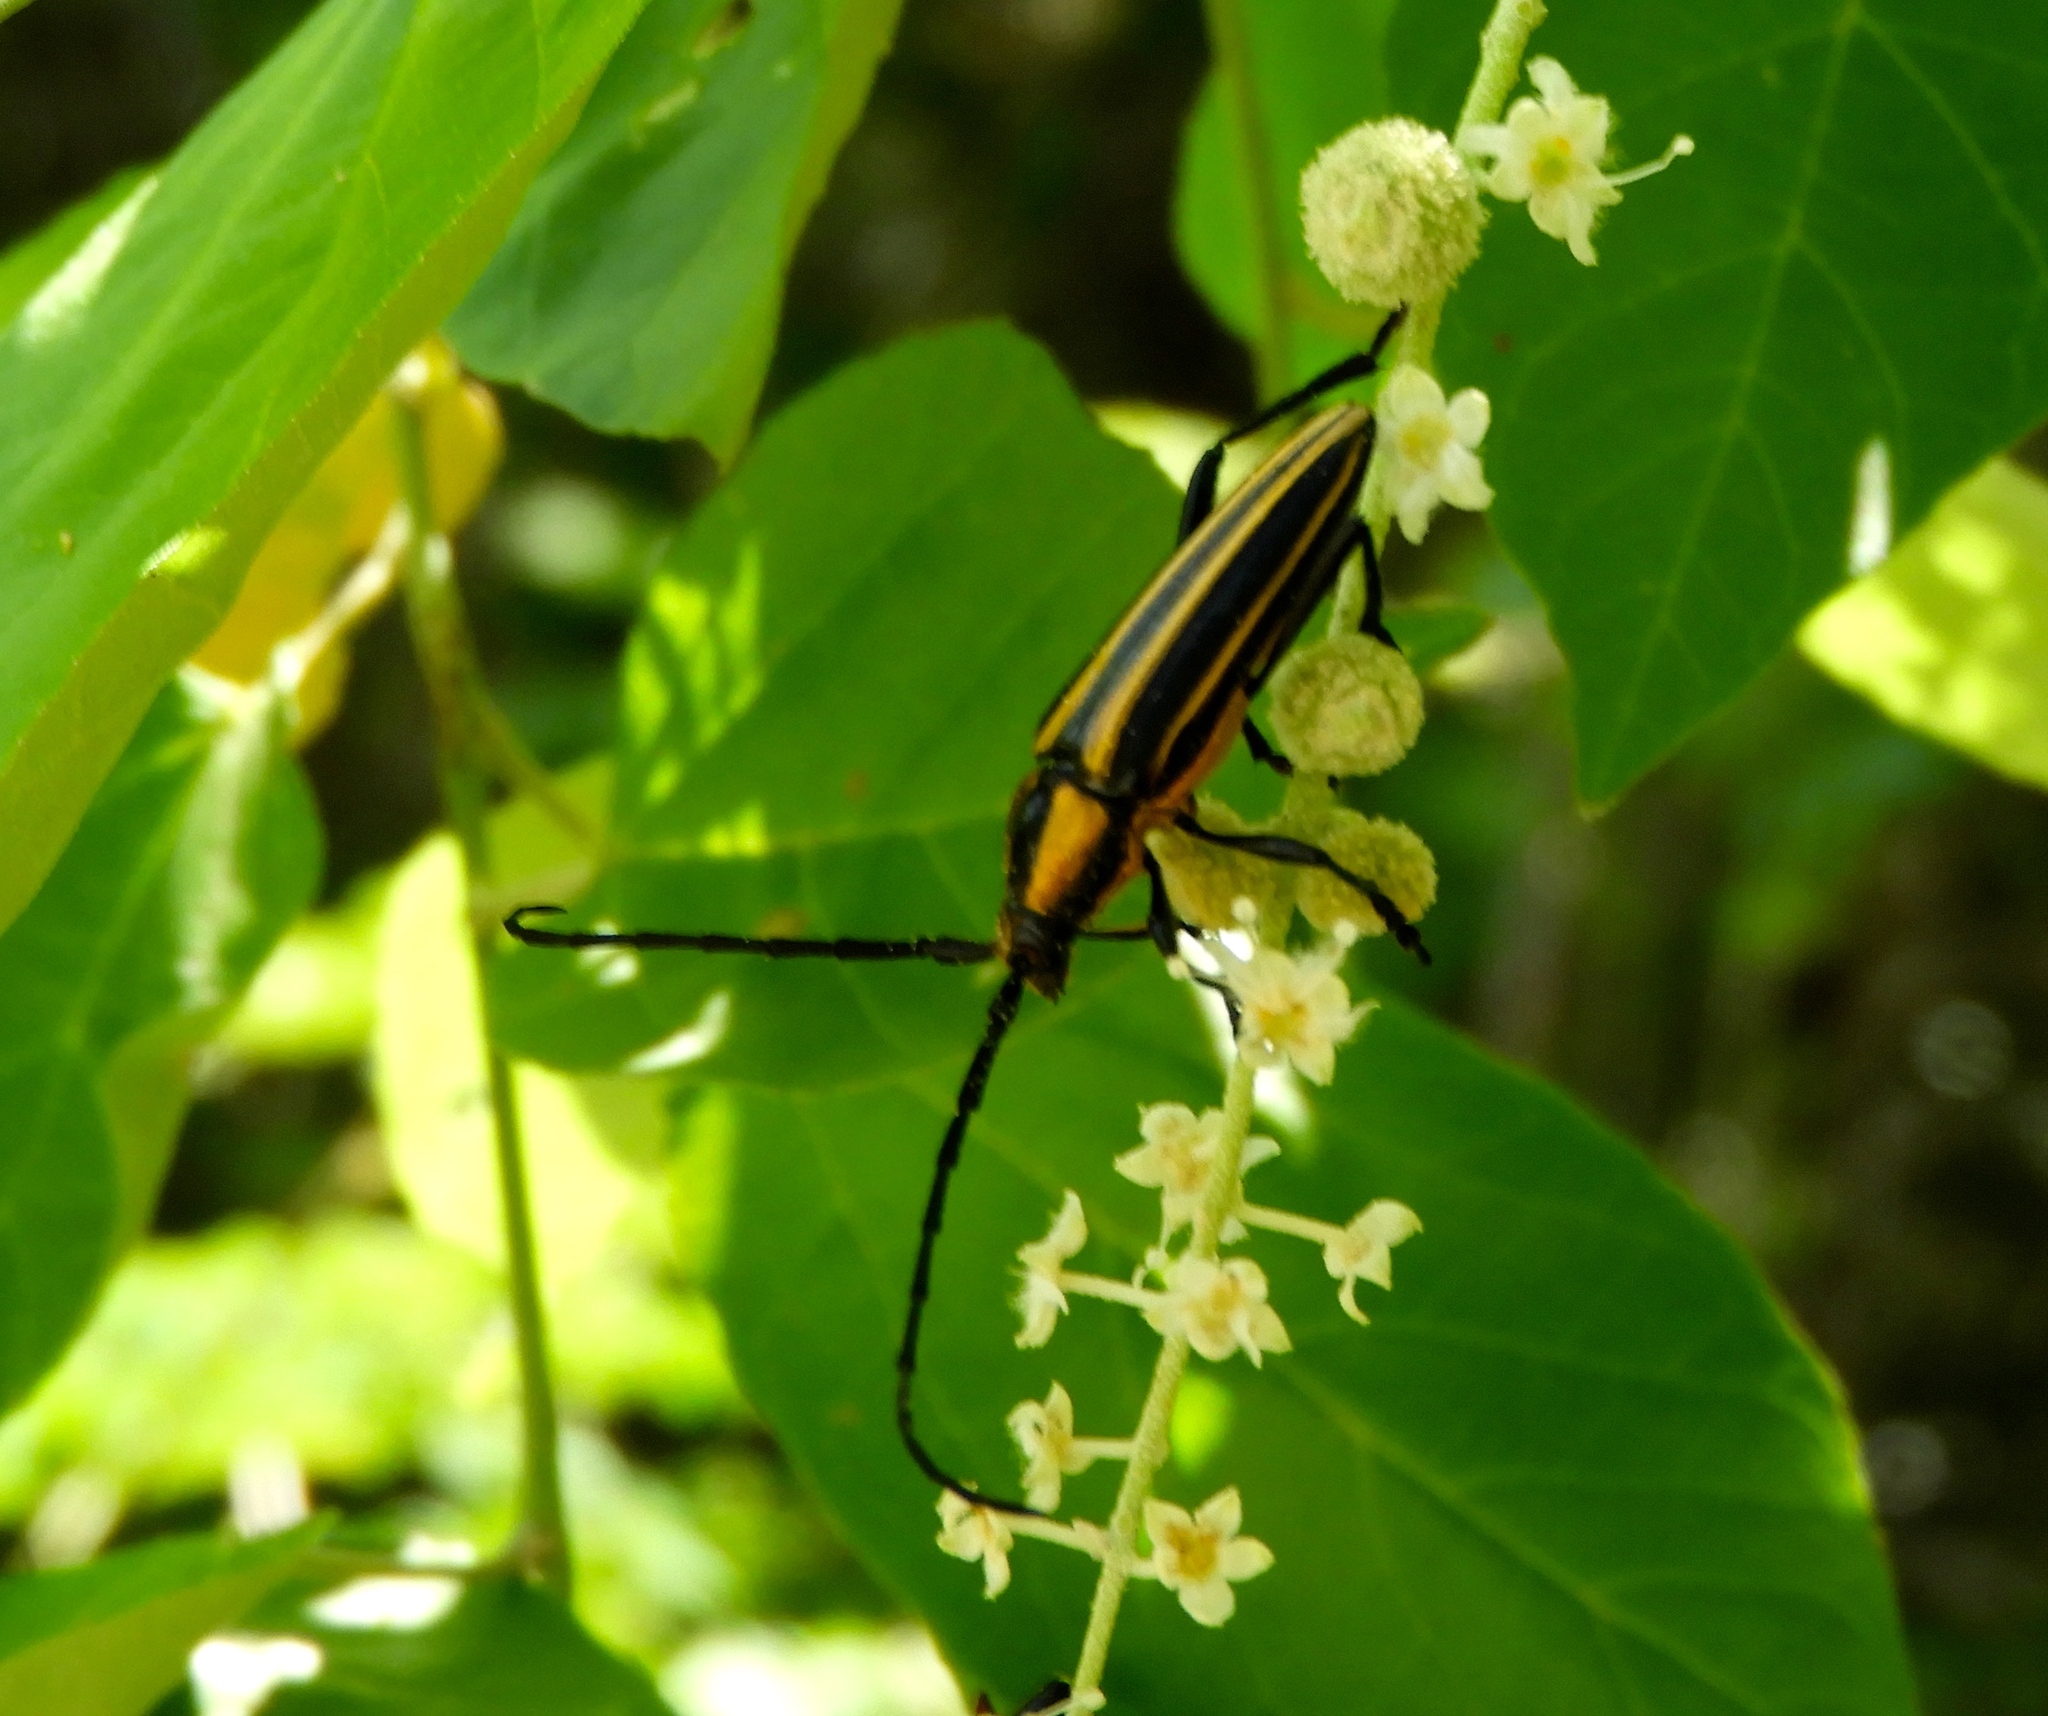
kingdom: Animalia
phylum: Arthropoda
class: Insecta
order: Coleoptera
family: Cerambycidae
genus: Neotaranomis
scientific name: Neotaranomis sinaloae
